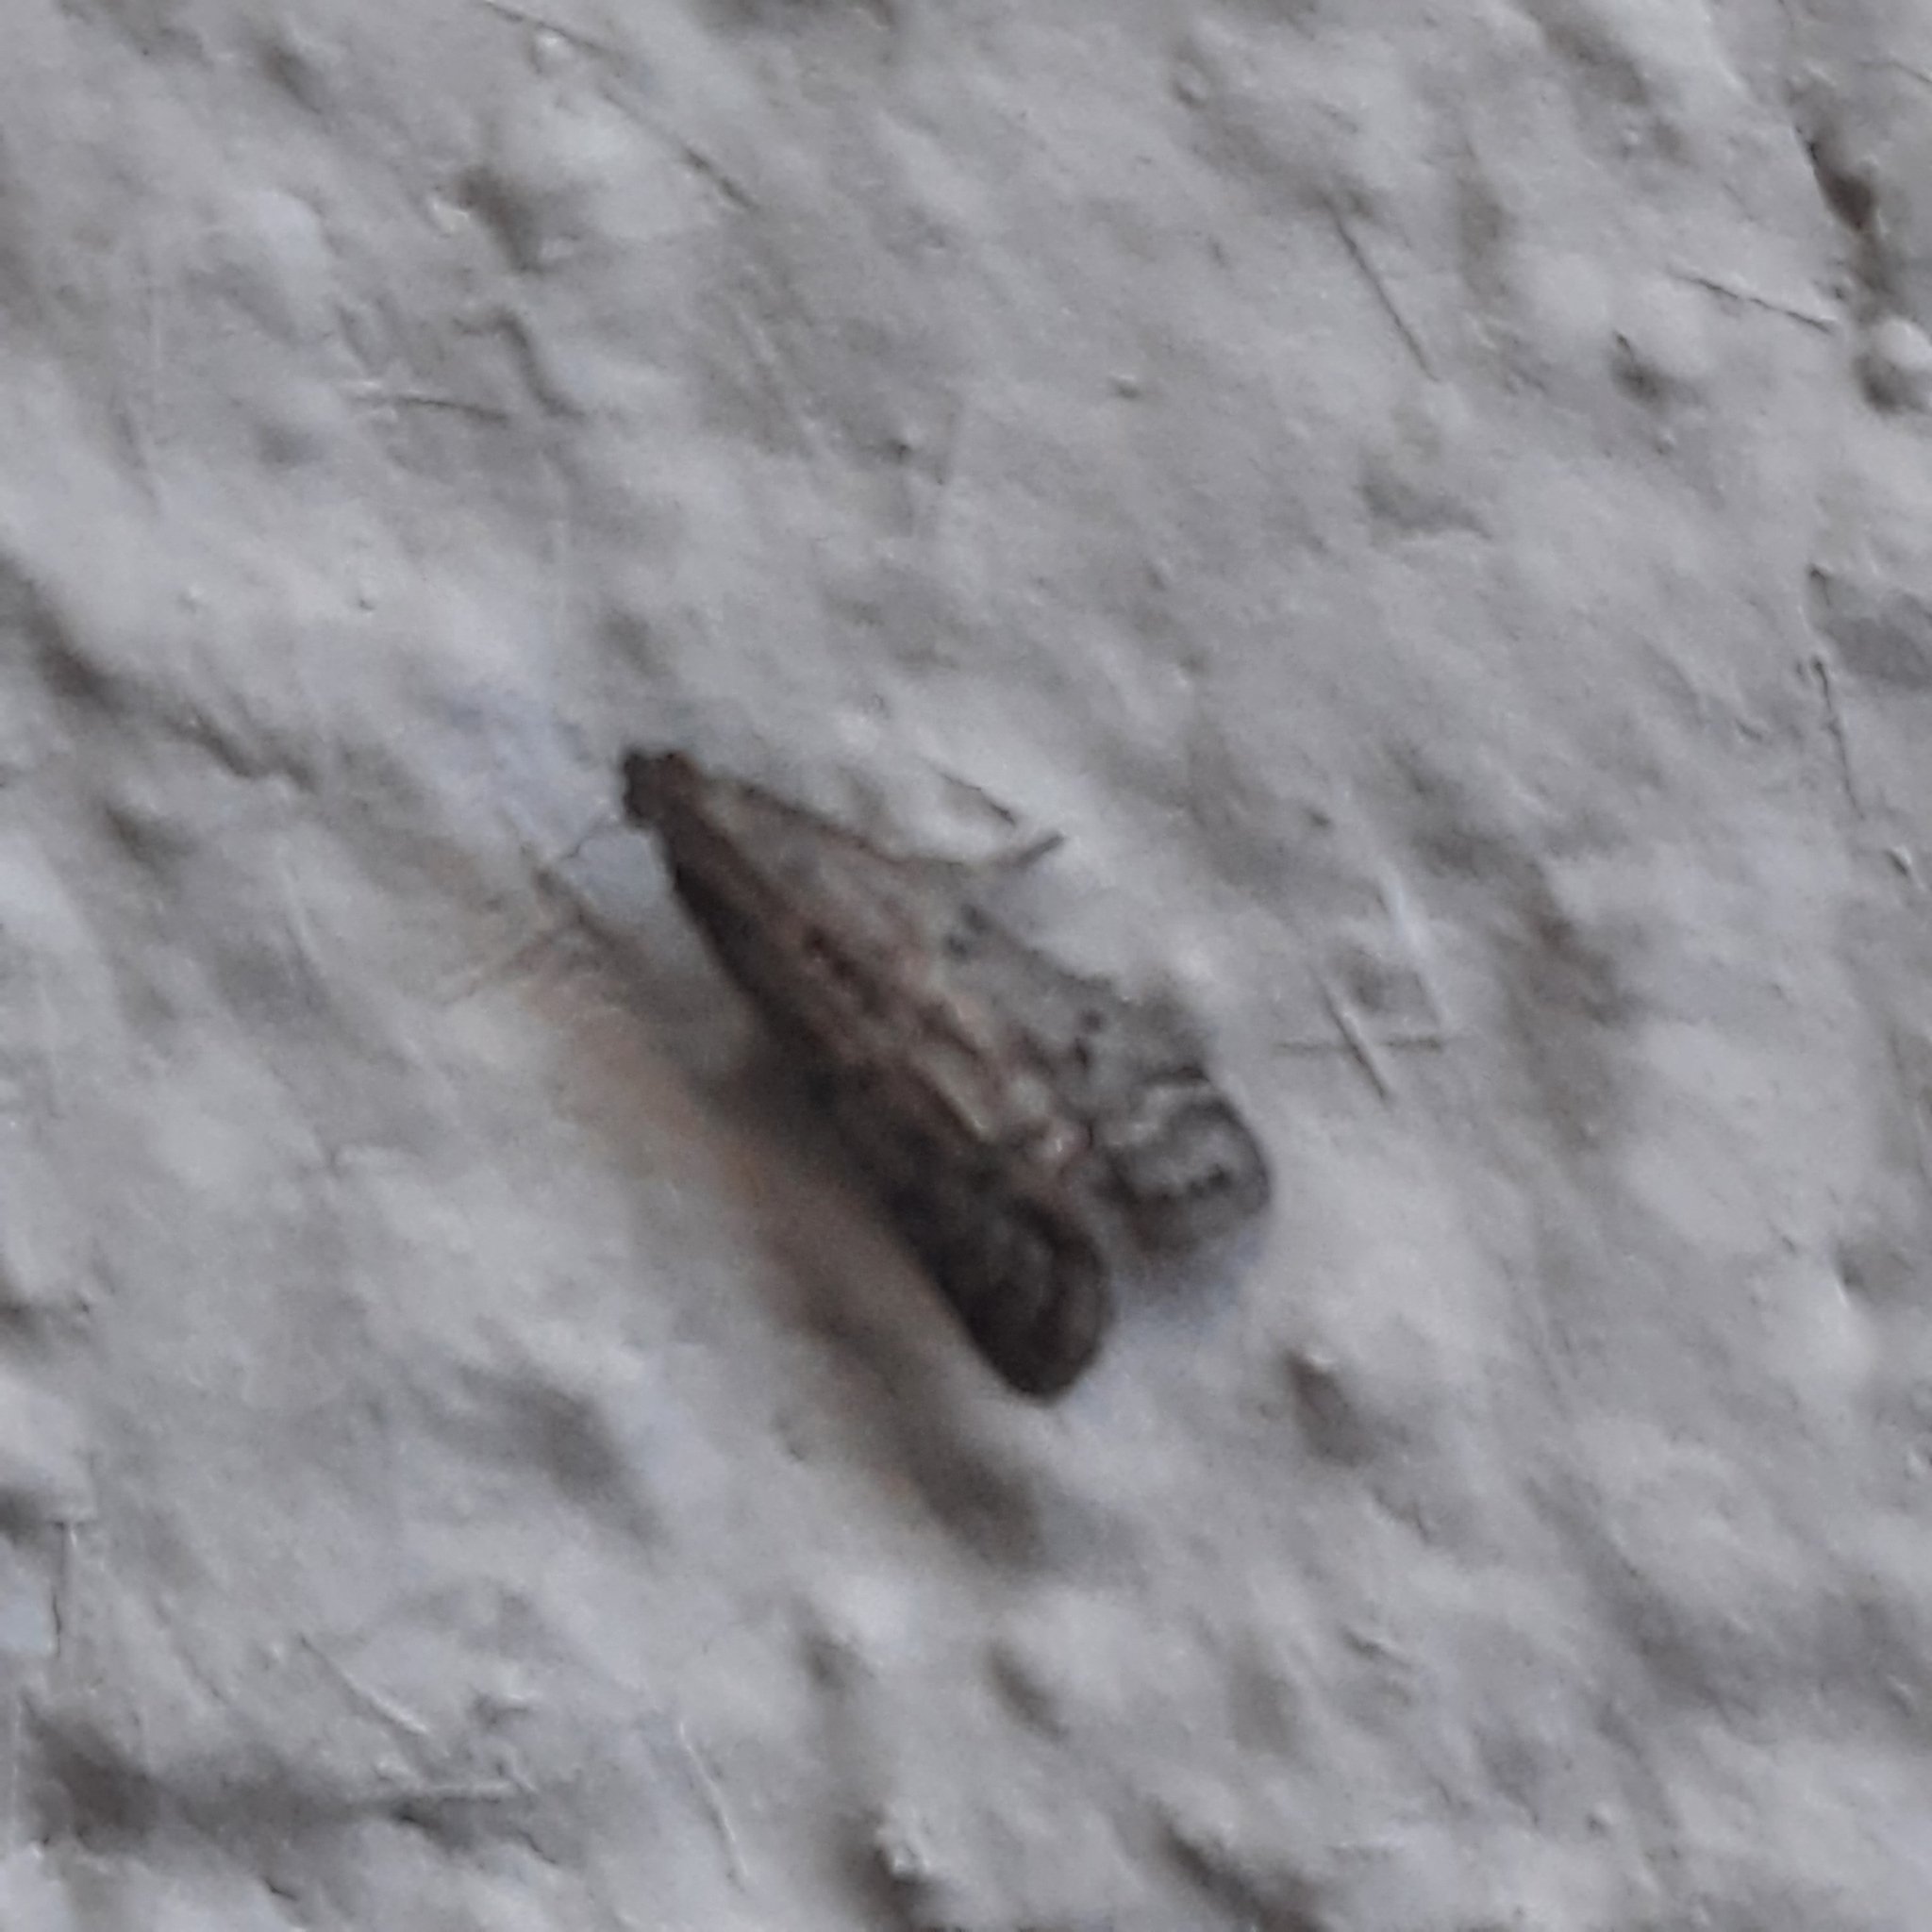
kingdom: Animalia
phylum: Arthropoda
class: Insecta
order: Lepidoptera
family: Pyralidae
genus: Ephestia
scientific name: Ephestia
